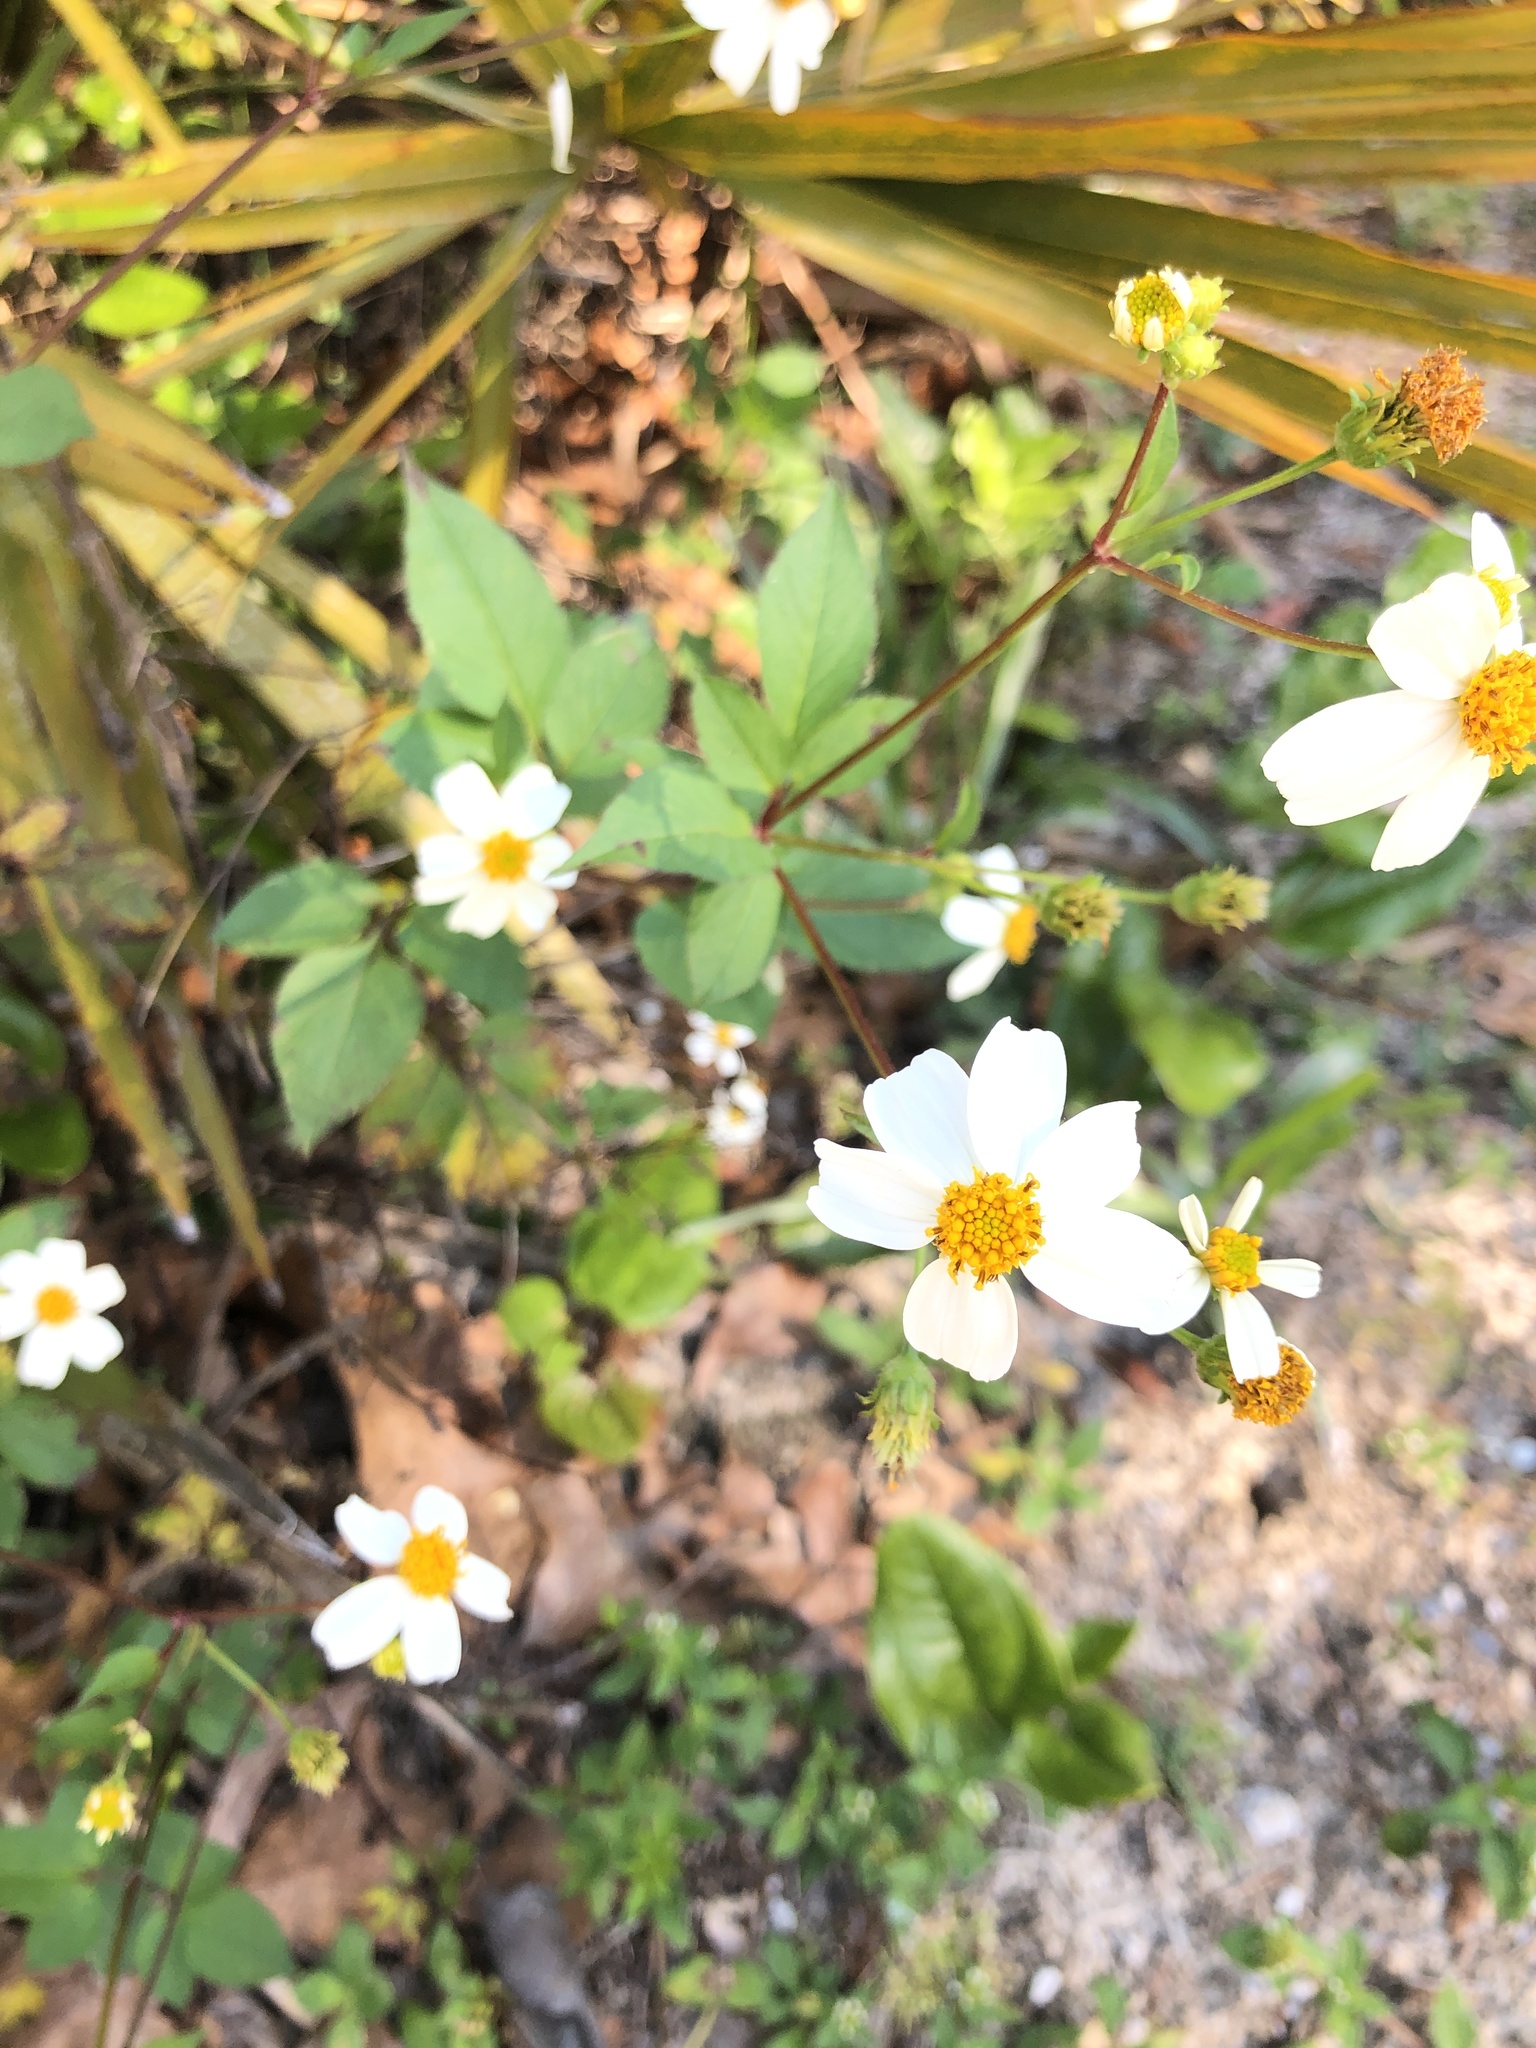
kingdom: Plantae
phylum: Tracheophyta
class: Magnoliopsida
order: Asterales
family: Asteraceae
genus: Bidens
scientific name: Bidens alba
